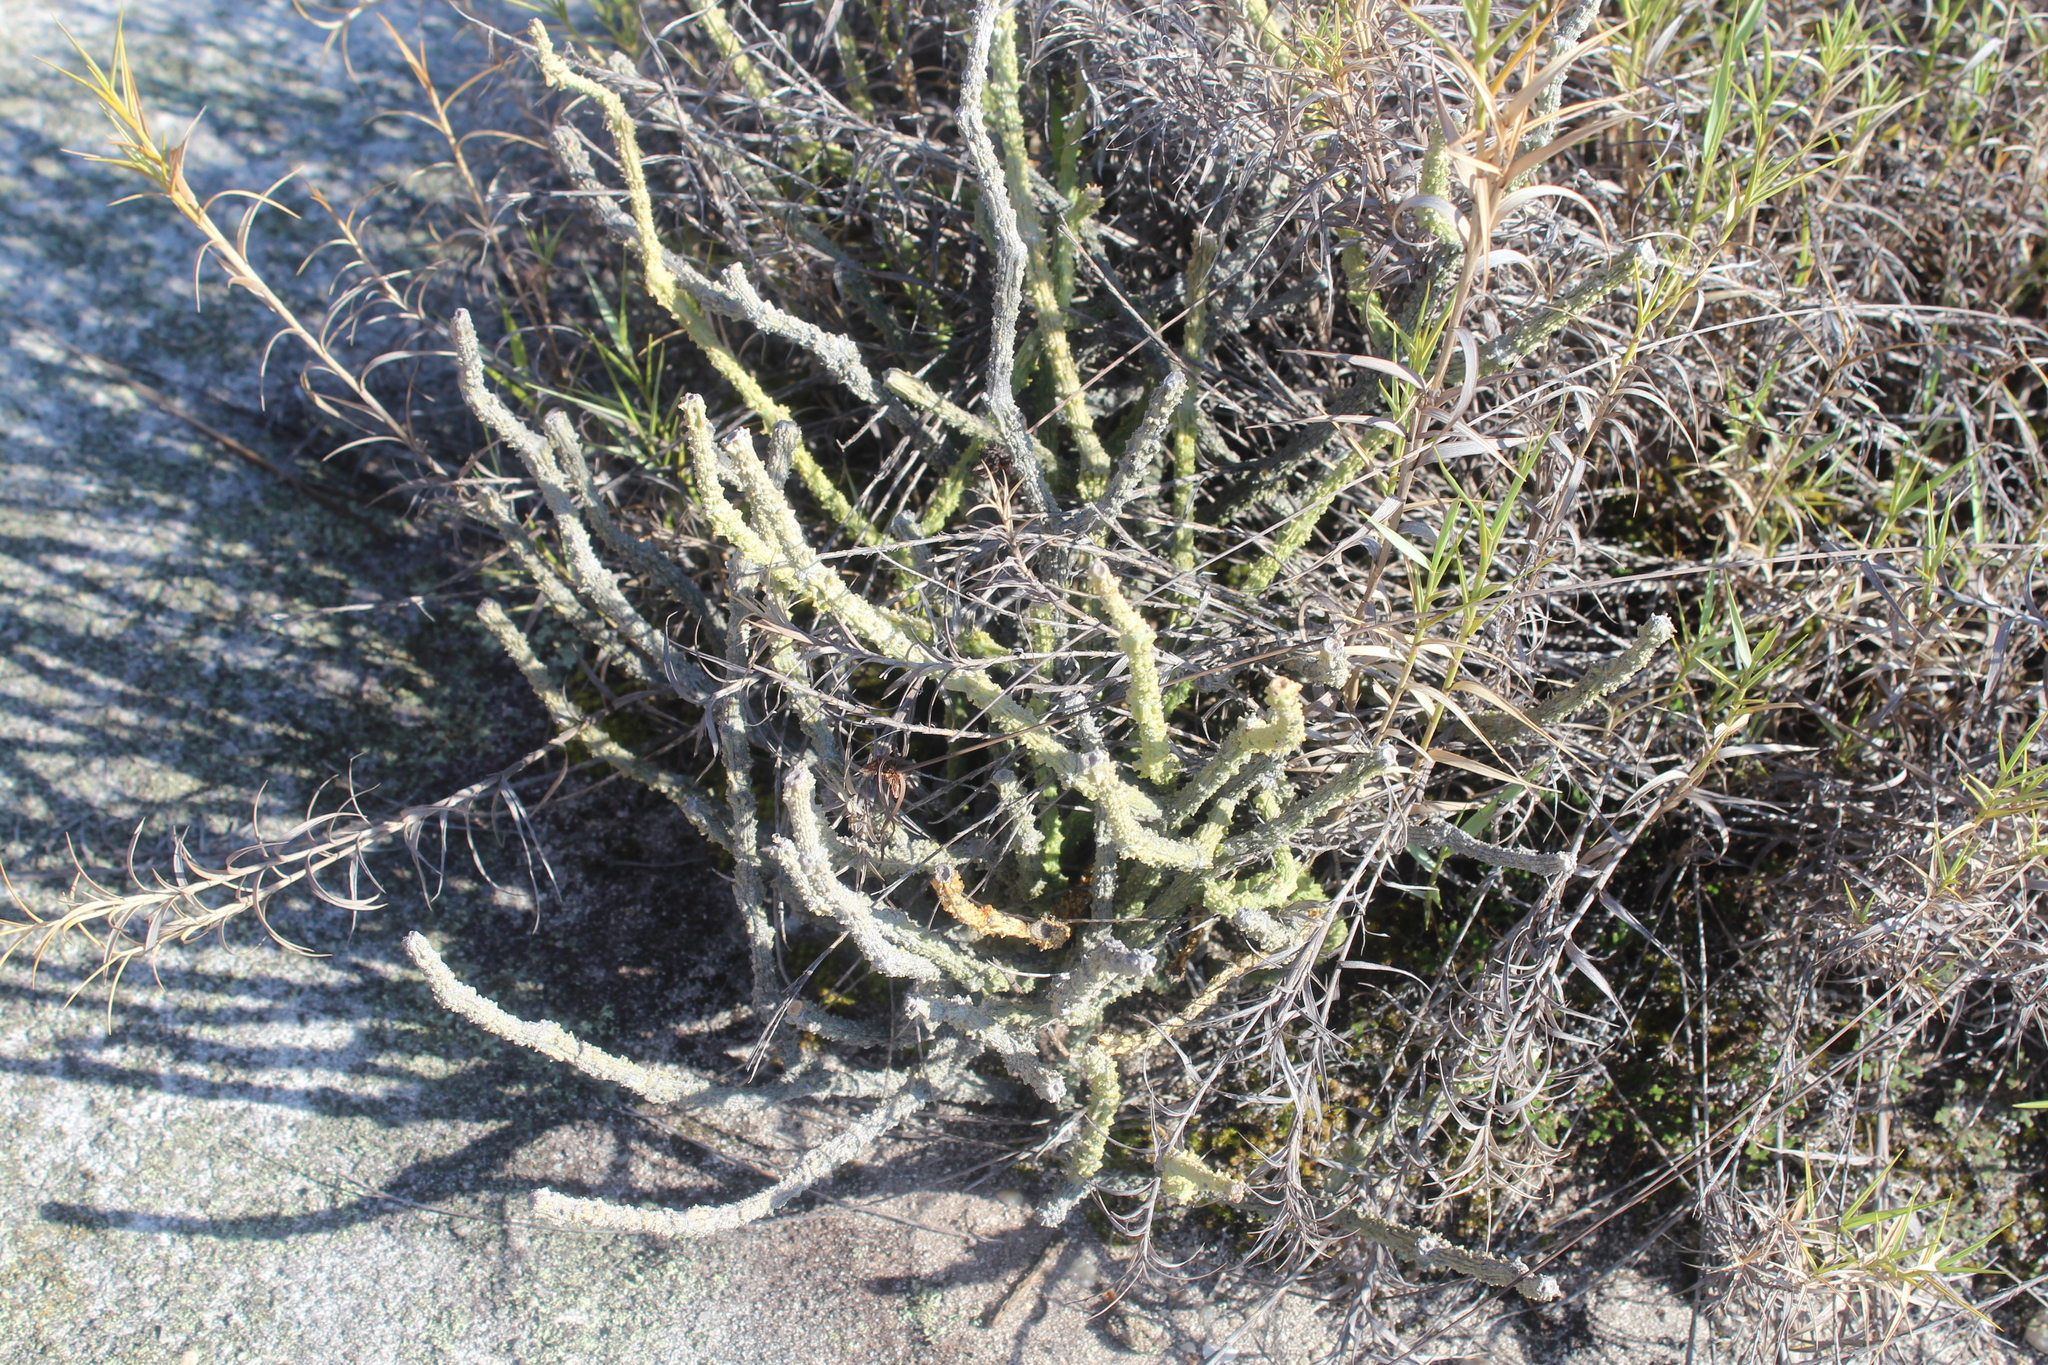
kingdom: Plantae
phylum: Tracheophyta
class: Magnoliopsida
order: Gentianales
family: Apocynaceae
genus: Cynanchum
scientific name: Cynanchum macrolobum
